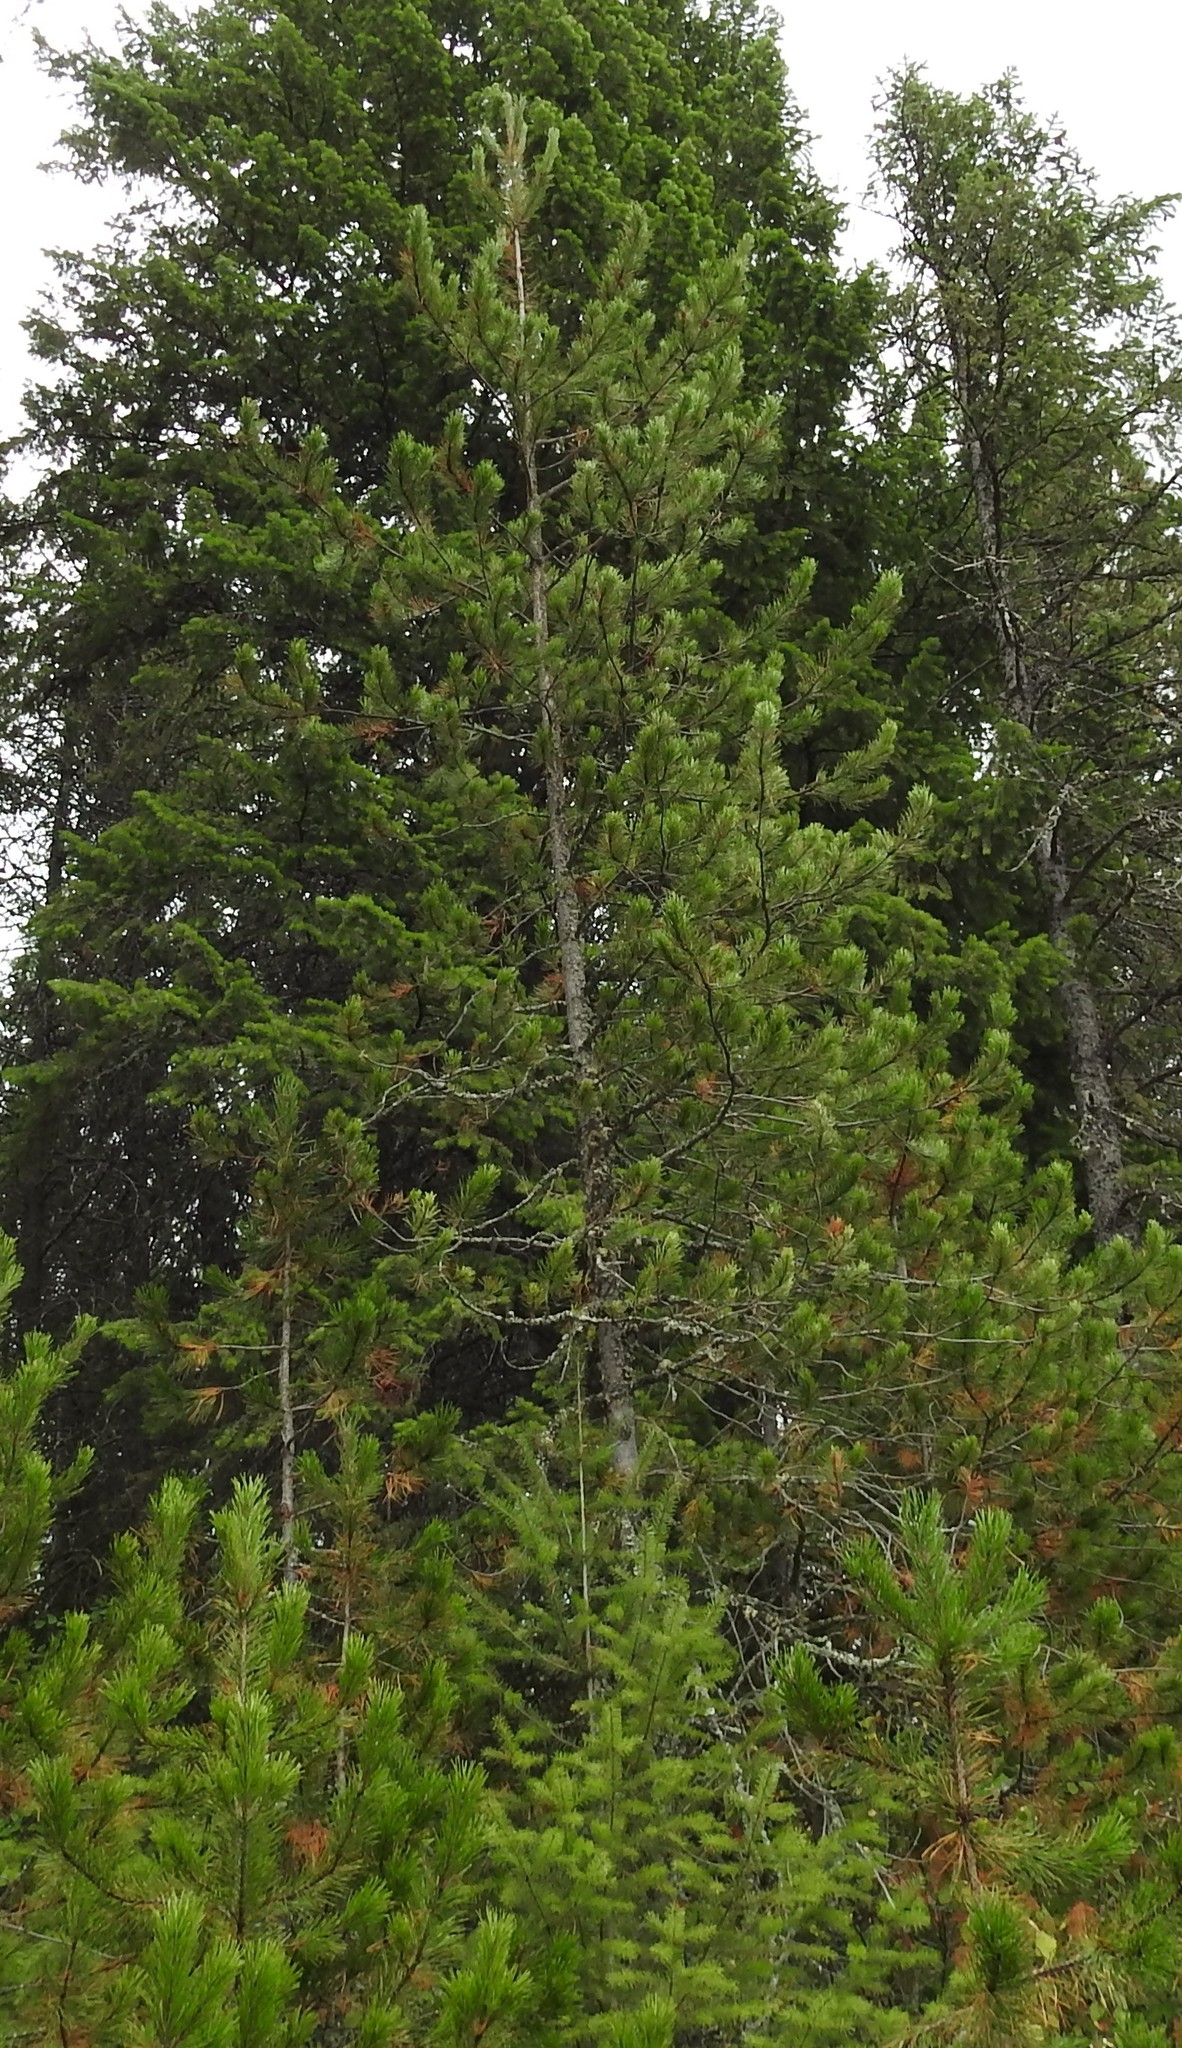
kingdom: Plantae
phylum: Tracheophyta
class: Pinopsida
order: Pinales
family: Pinaceae
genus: Pinus
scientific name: Pinus contorta
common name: Lodgepole pine
